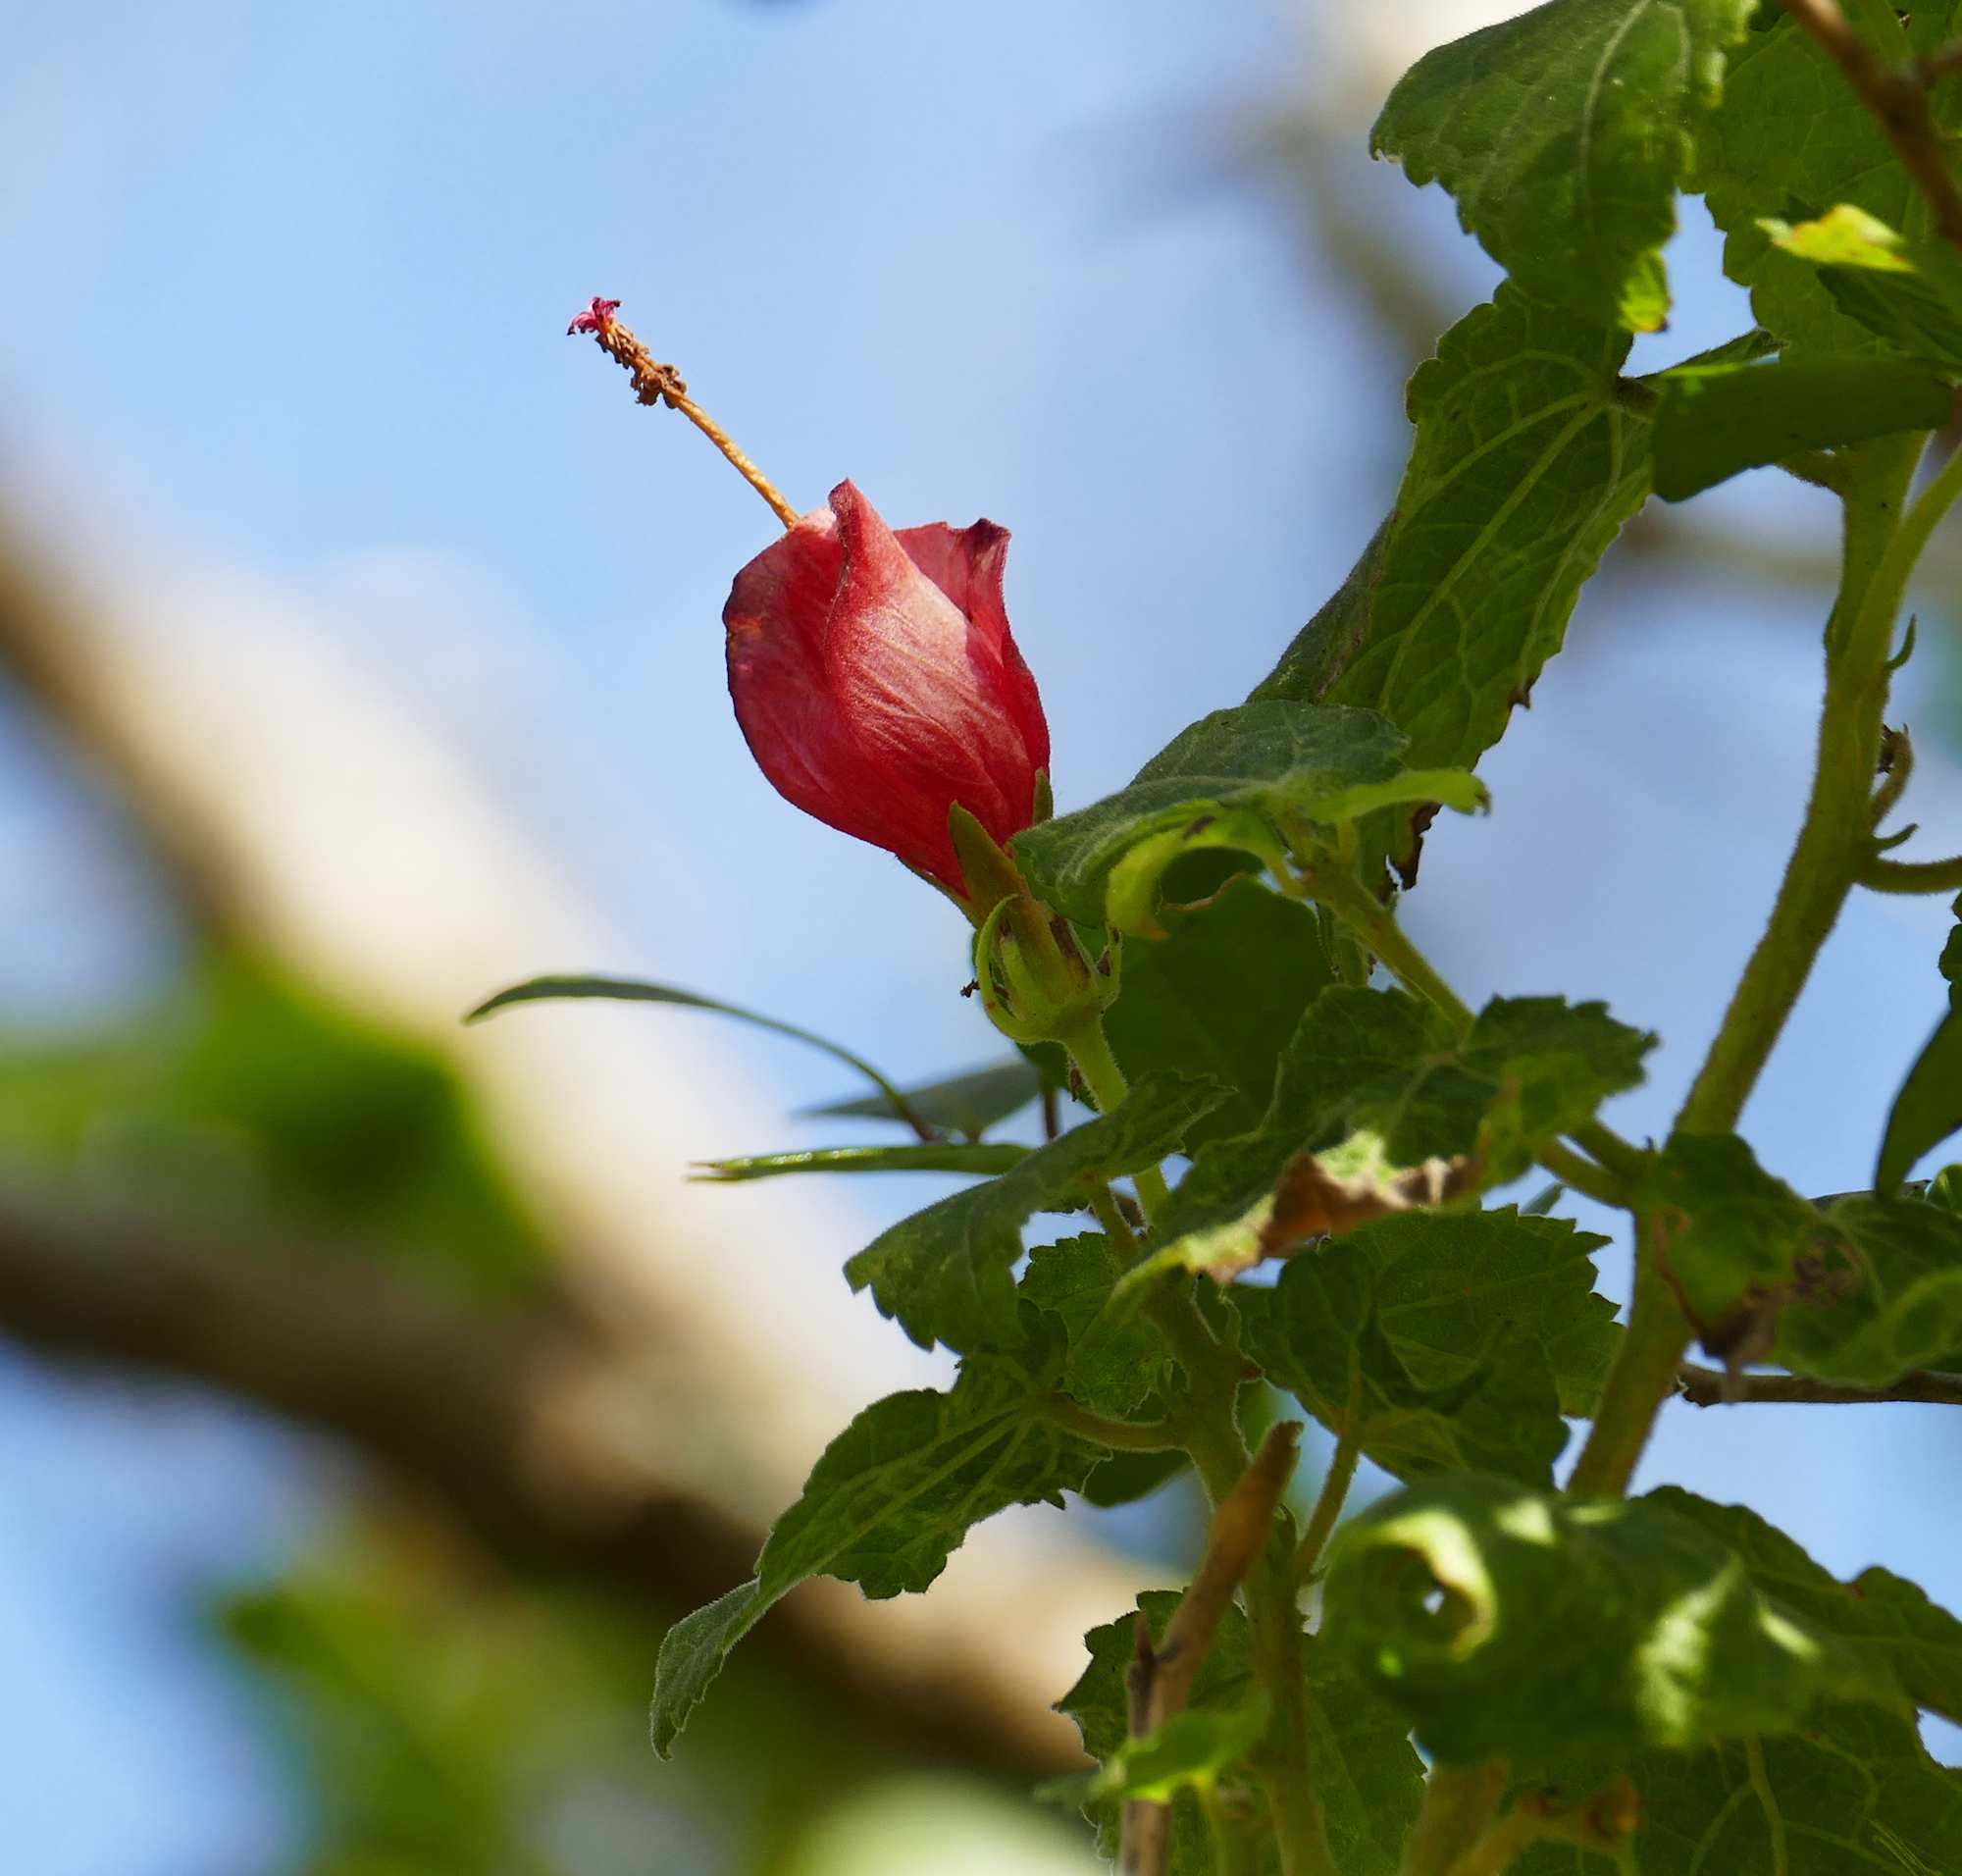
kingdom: Plantae
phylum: Tracheophyta
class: Magnoliopsida
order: Malvales
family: Malvaceae
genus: Malvaviscus
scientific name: Malvaviscus arboreus
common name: Wax mallow
